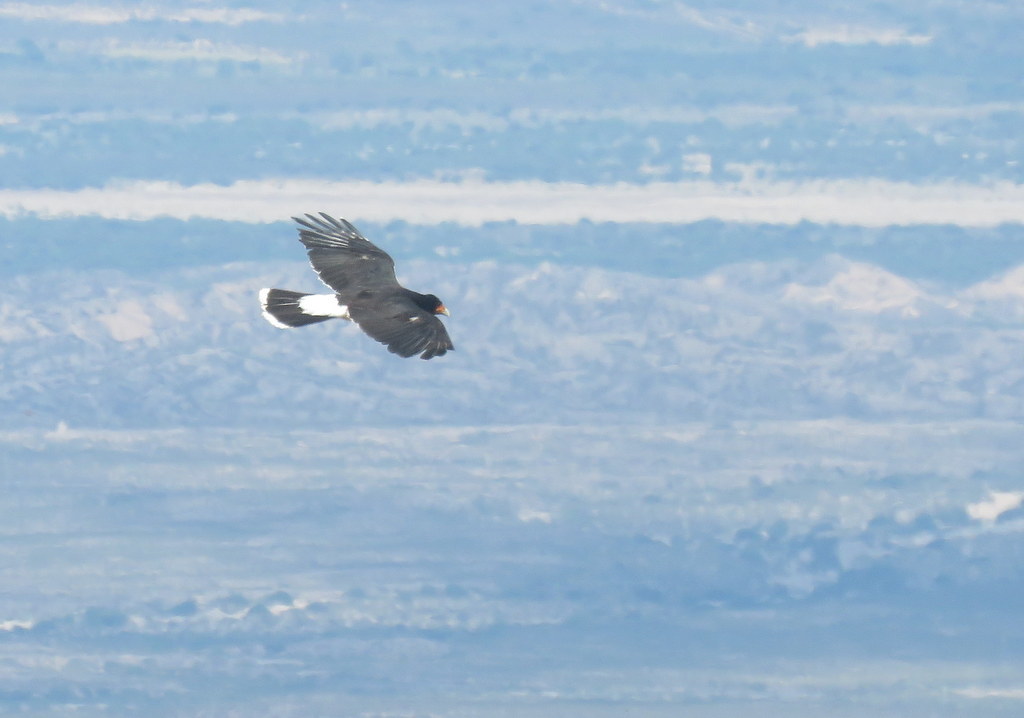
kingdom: Animalia
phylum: Chordata
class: Aves
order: Falconiformes
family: Falconidae
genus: Daptrius
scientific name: Daptrius
